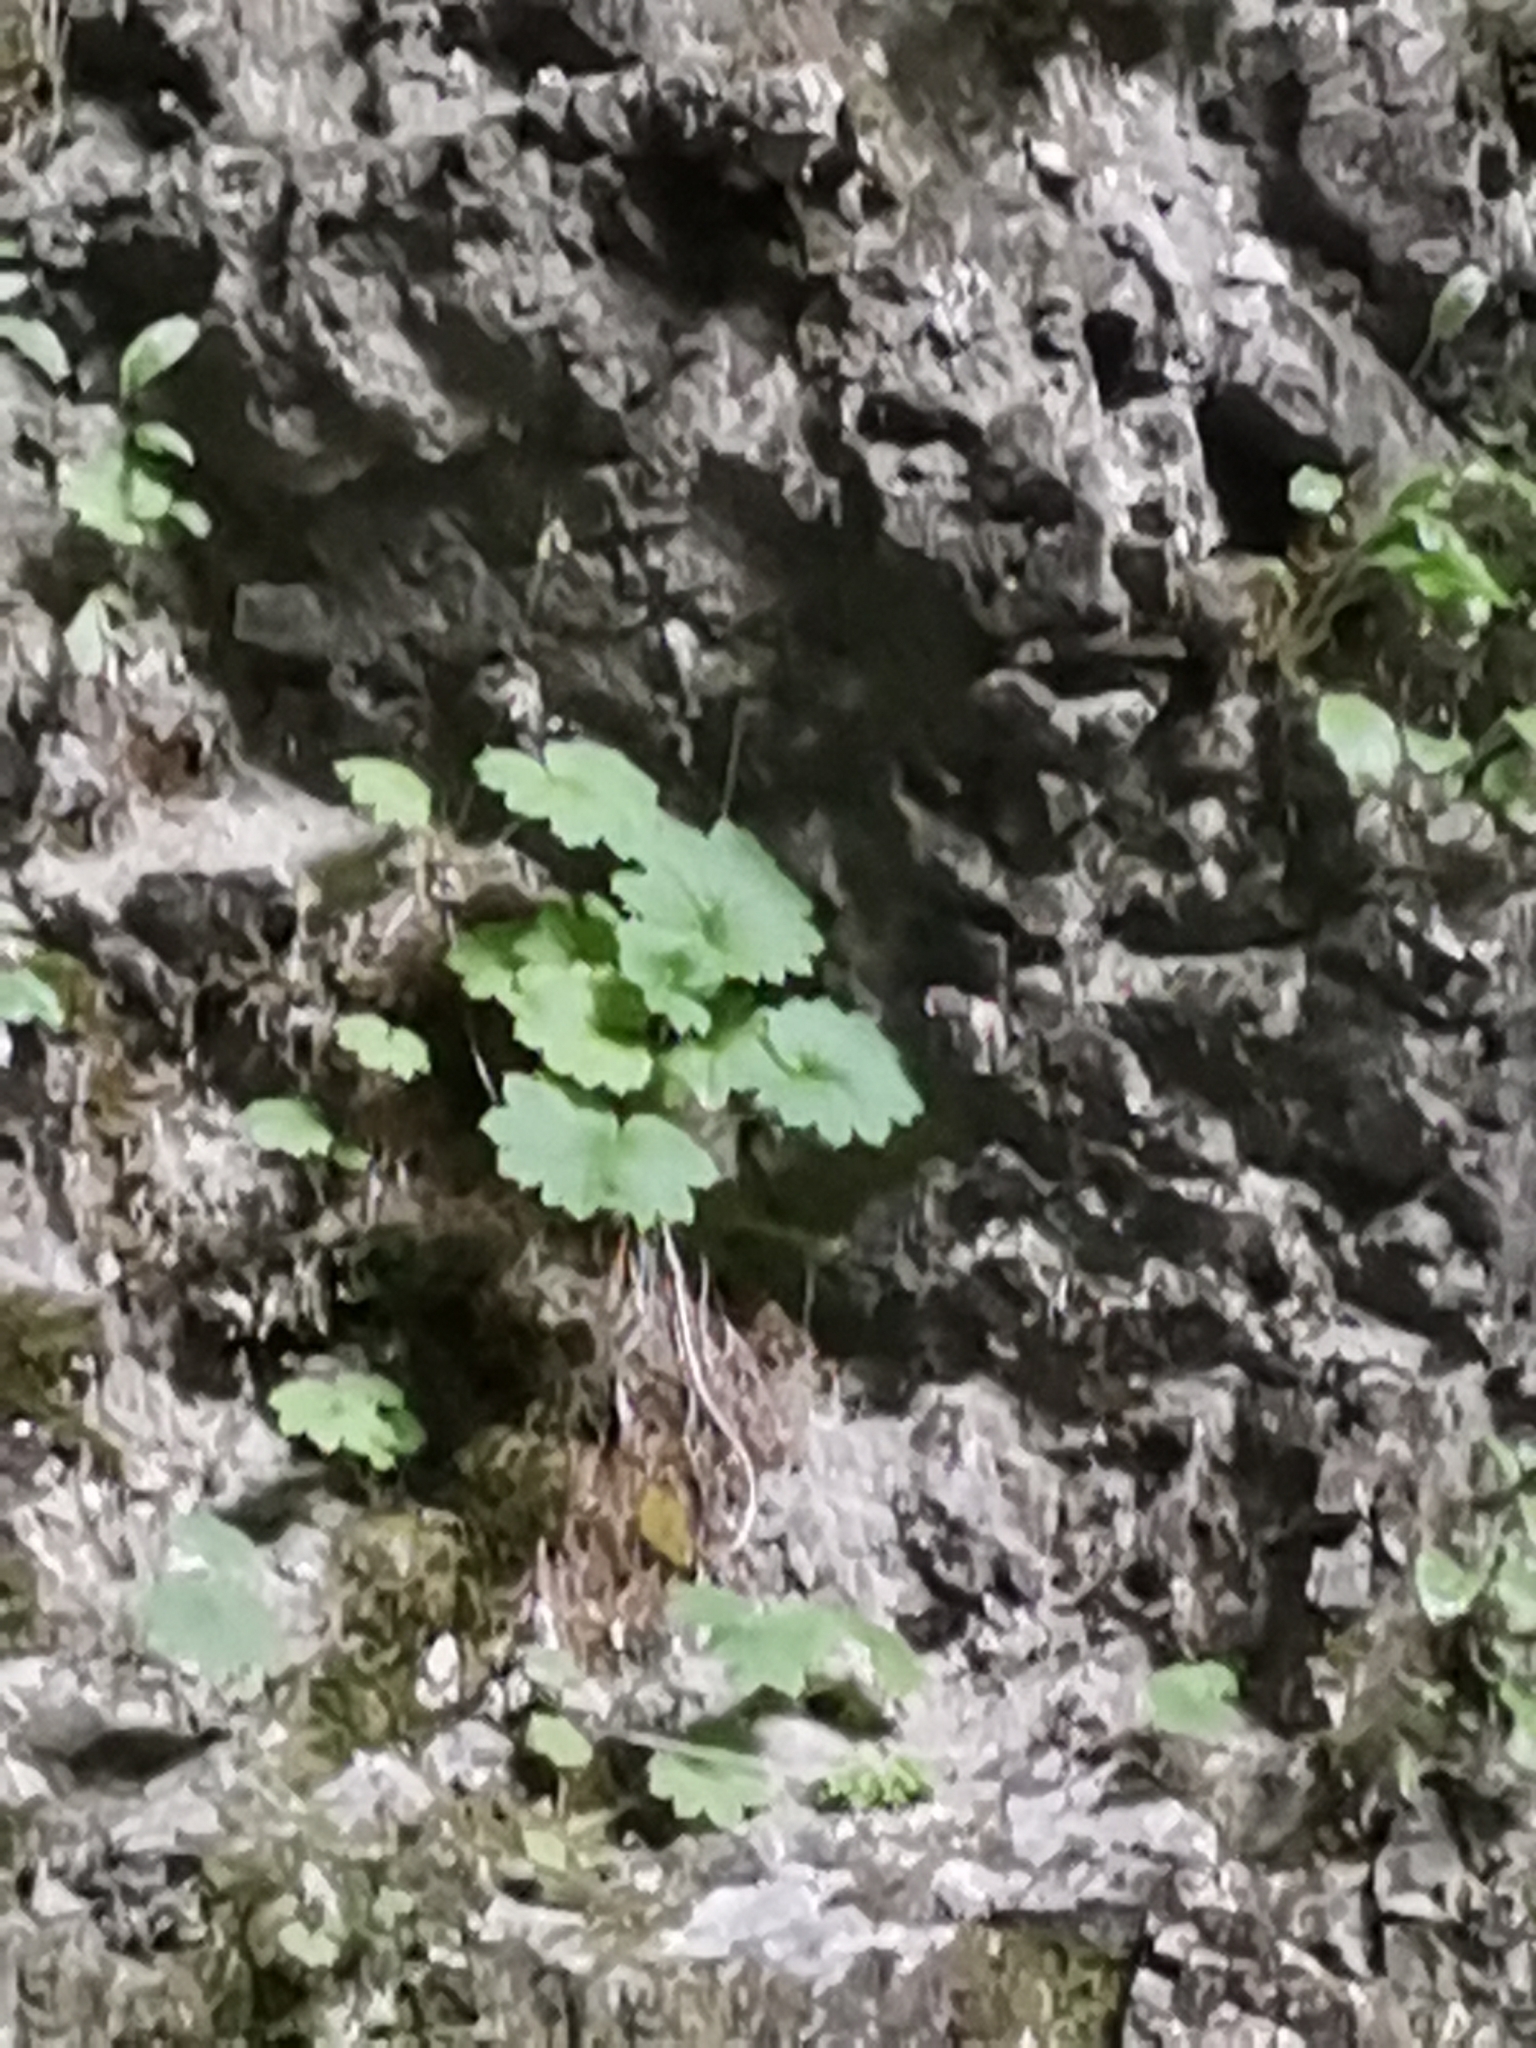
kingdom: Plantae
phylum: Tracheophyta
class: Magnoliopsida
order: Ericales
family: Primulaceae
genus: Primula
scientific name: Primula matthioli
